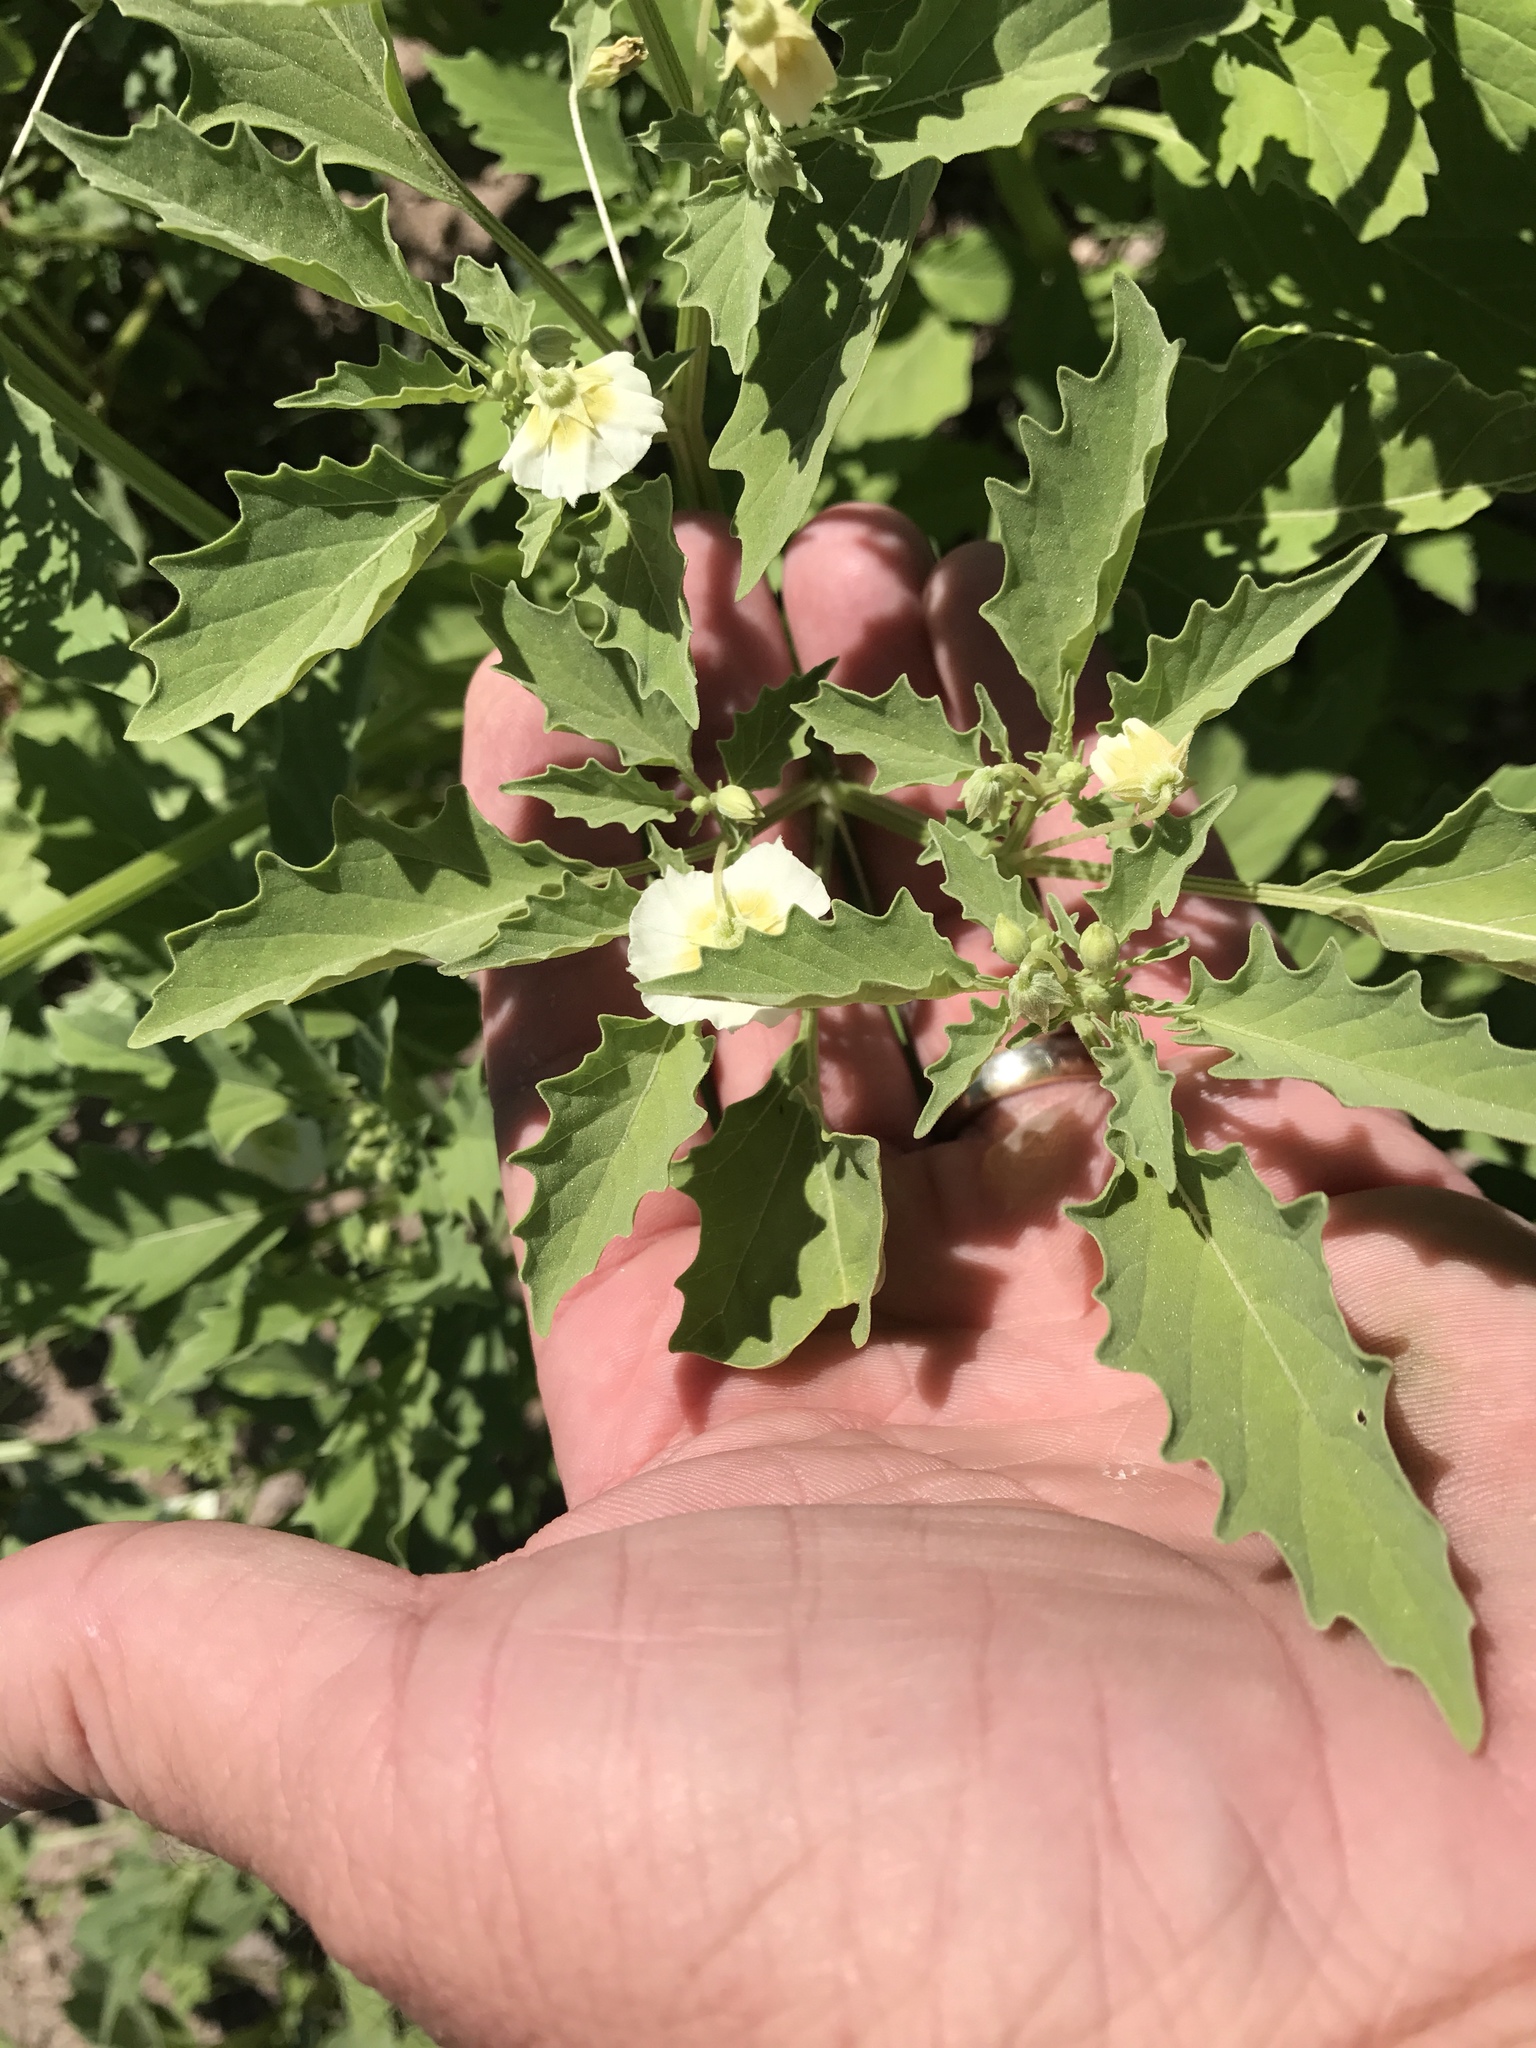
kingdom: Plantae
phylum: Tracheophyta
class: Magnoliopsida
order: Solanales
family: Solanaceae
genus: Physalis
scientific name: Physalis acutifolia
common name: Wright's ground-cherry
